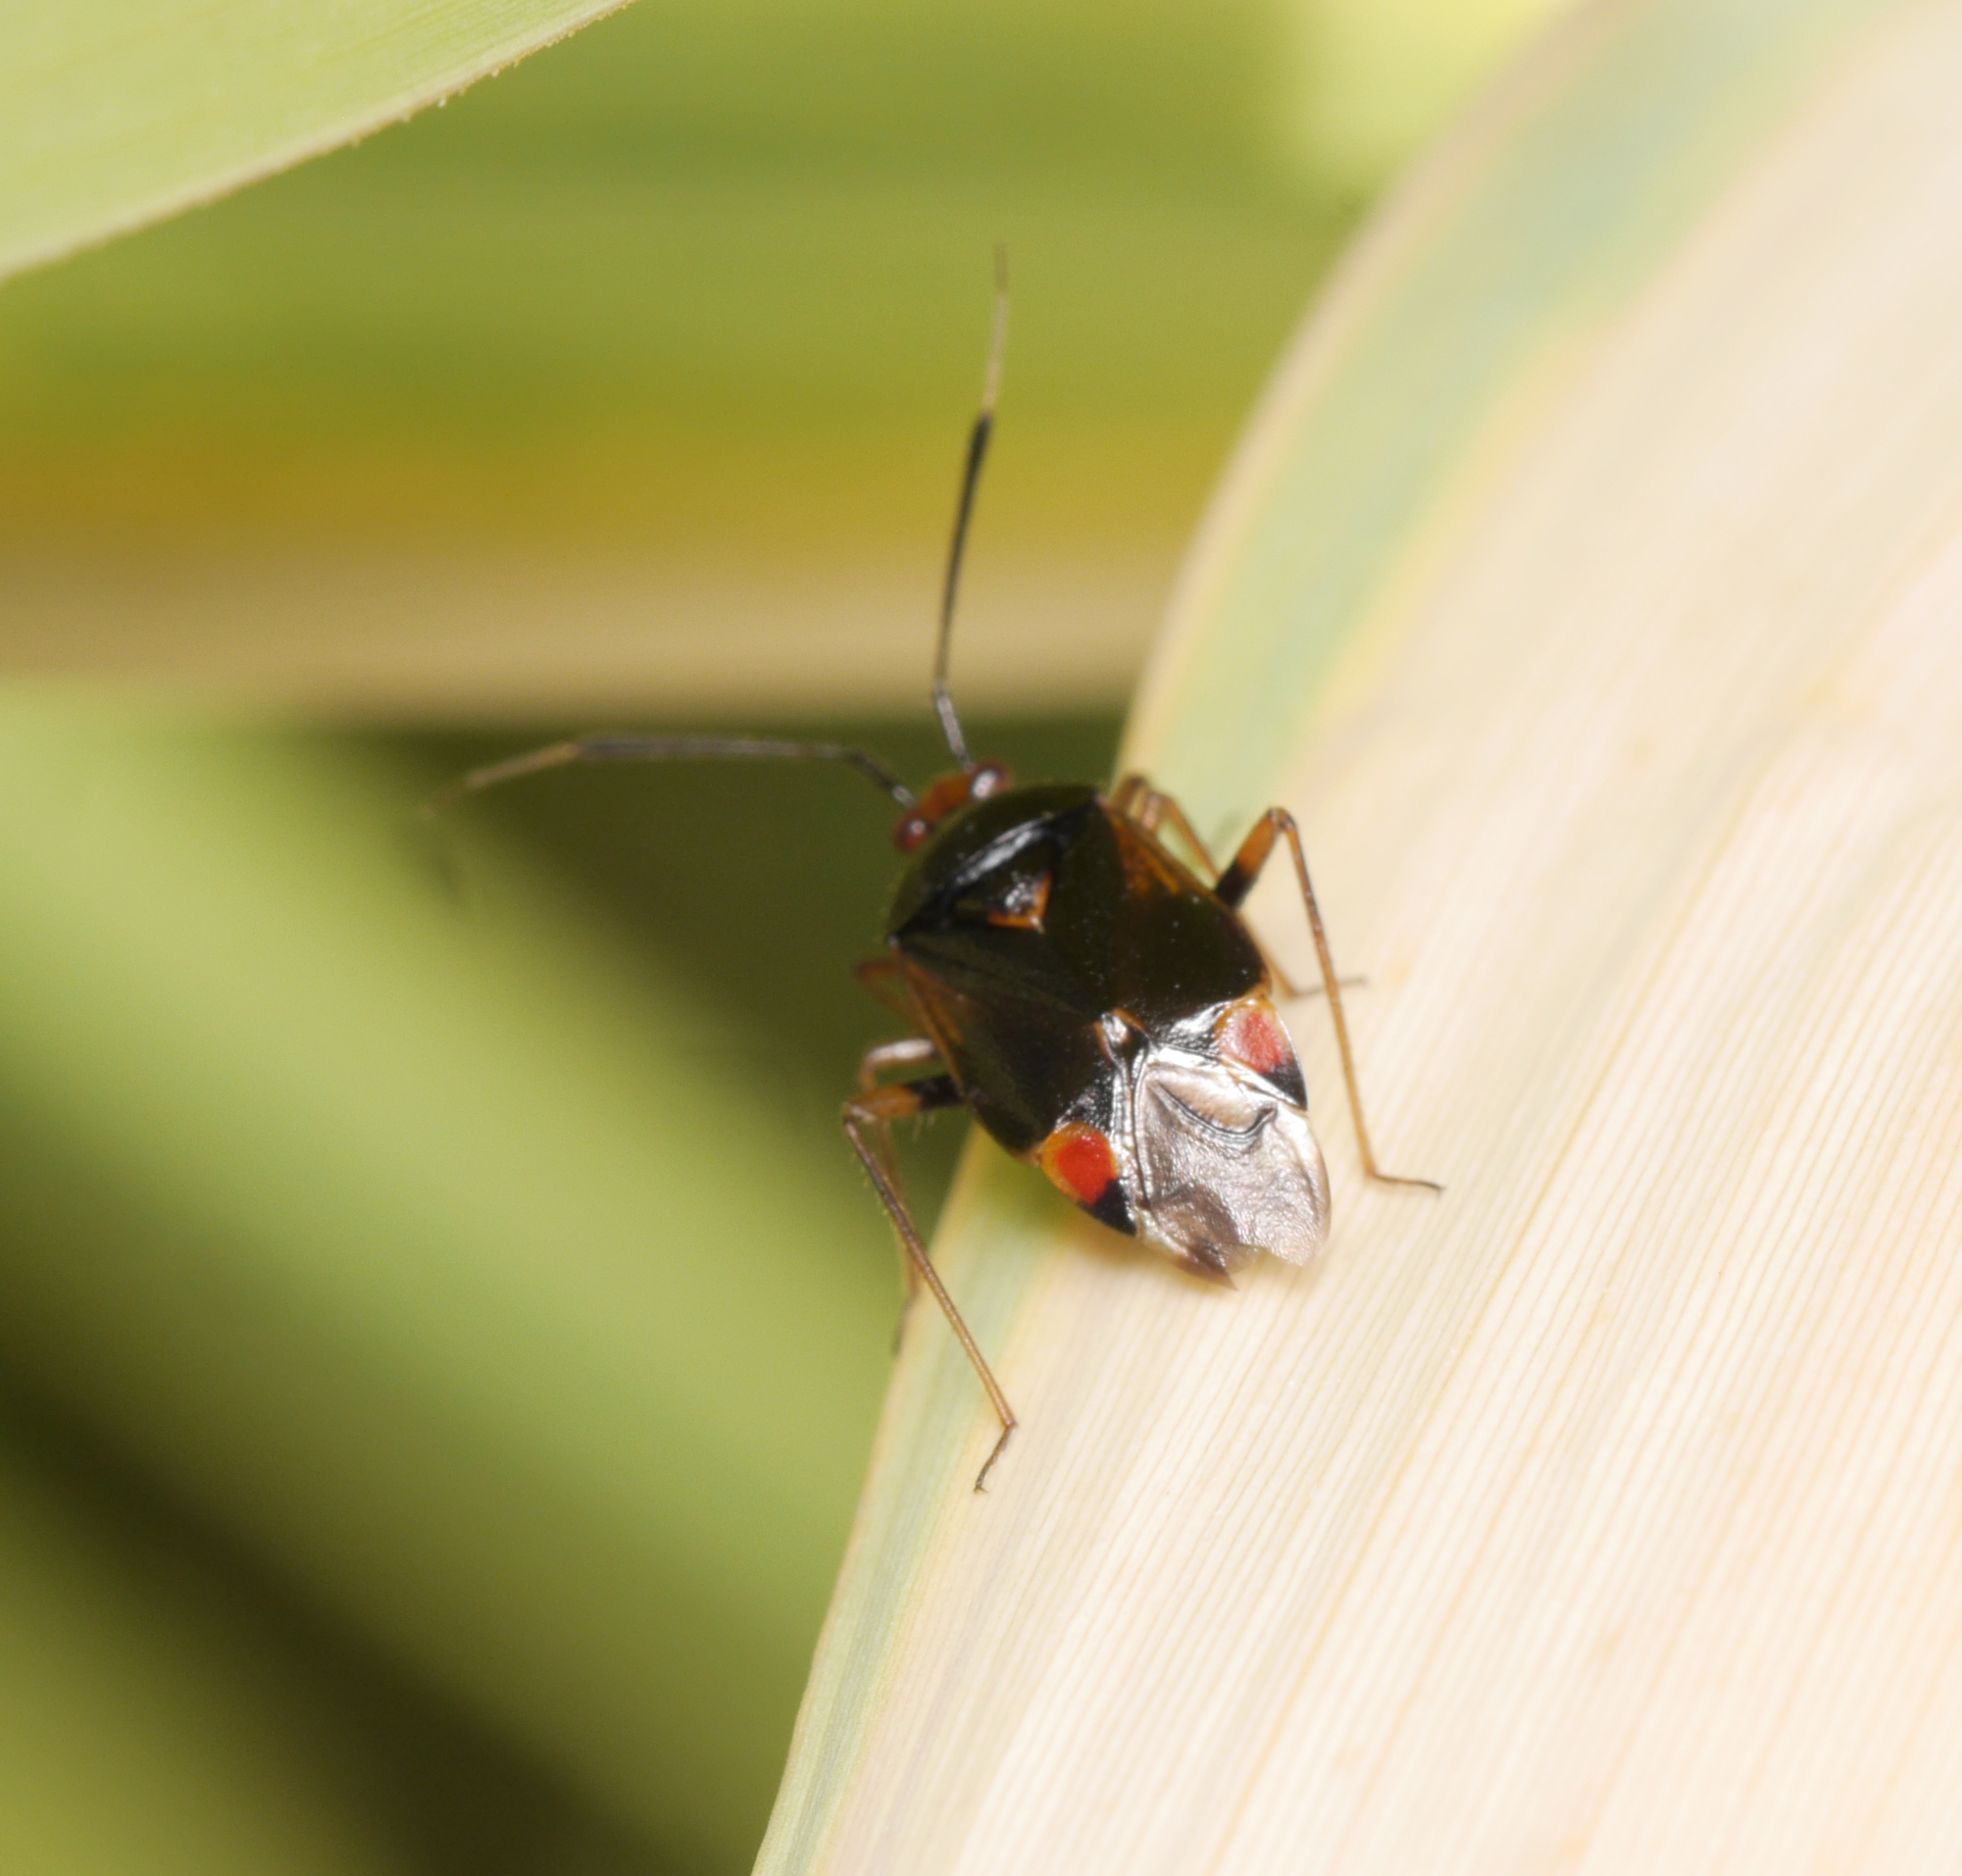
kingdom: Animalia
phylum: Arthropoda
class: Insecta
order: Hemiptera
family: Miridae
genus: Deraeocoris
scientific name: Deraeocoris ruber
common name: Plant bug
